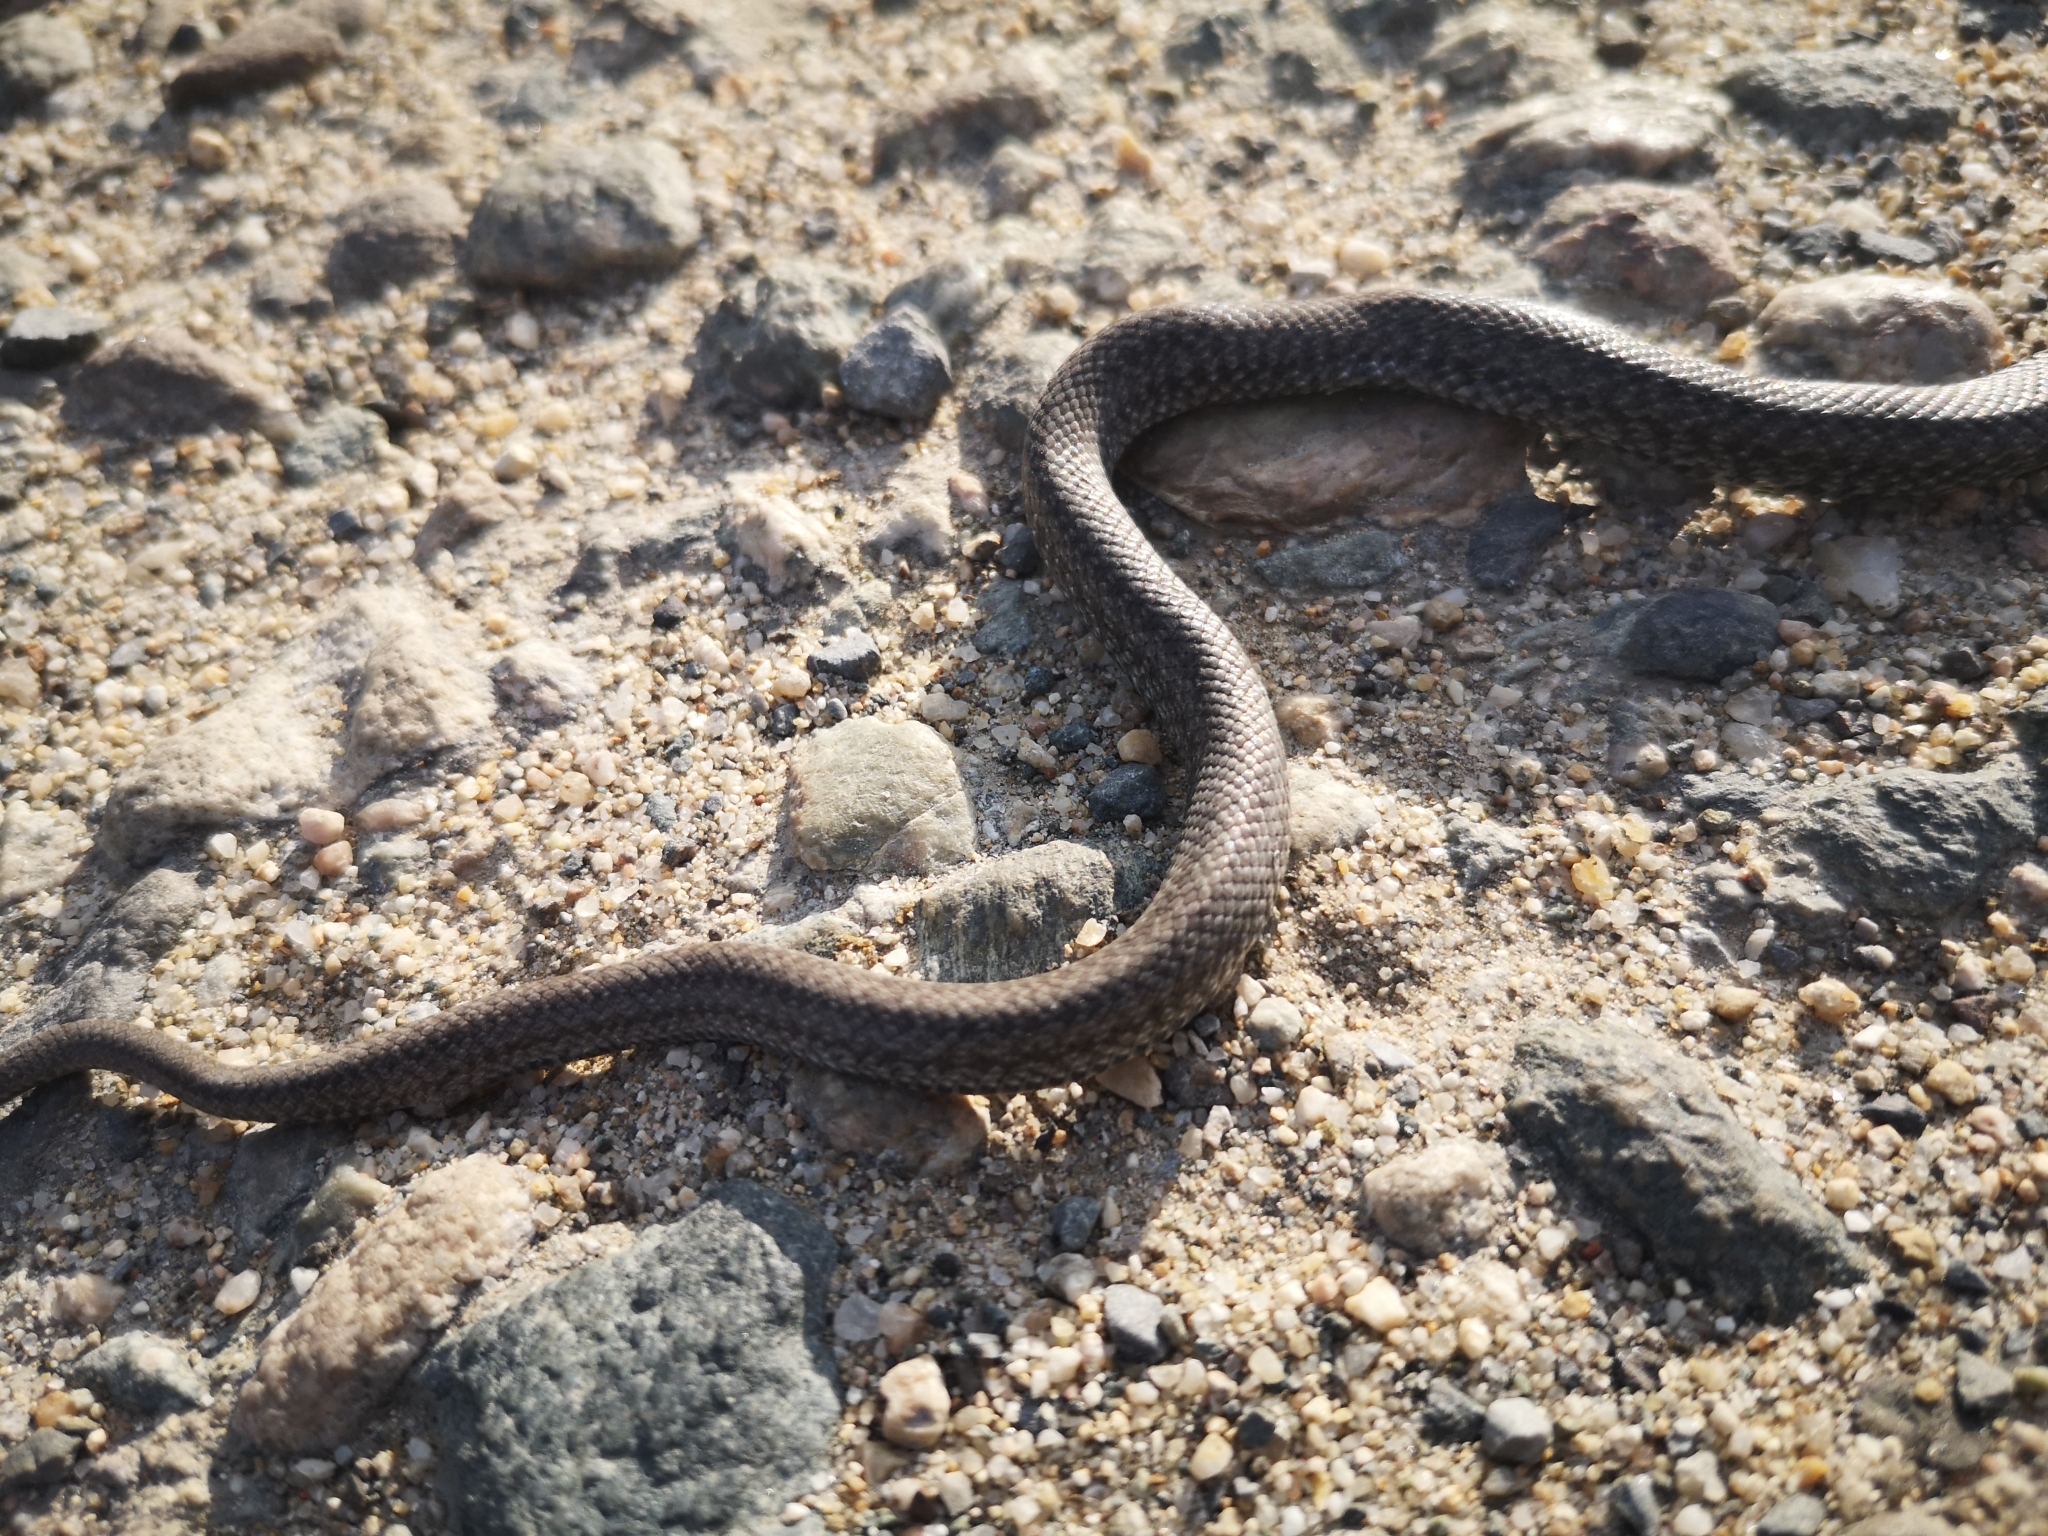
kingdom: Animalia
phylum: Chordata
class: Squamata
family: Colubridae
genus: Zamenis
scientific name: Zamenis longissimus
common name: Aesculapean snake
